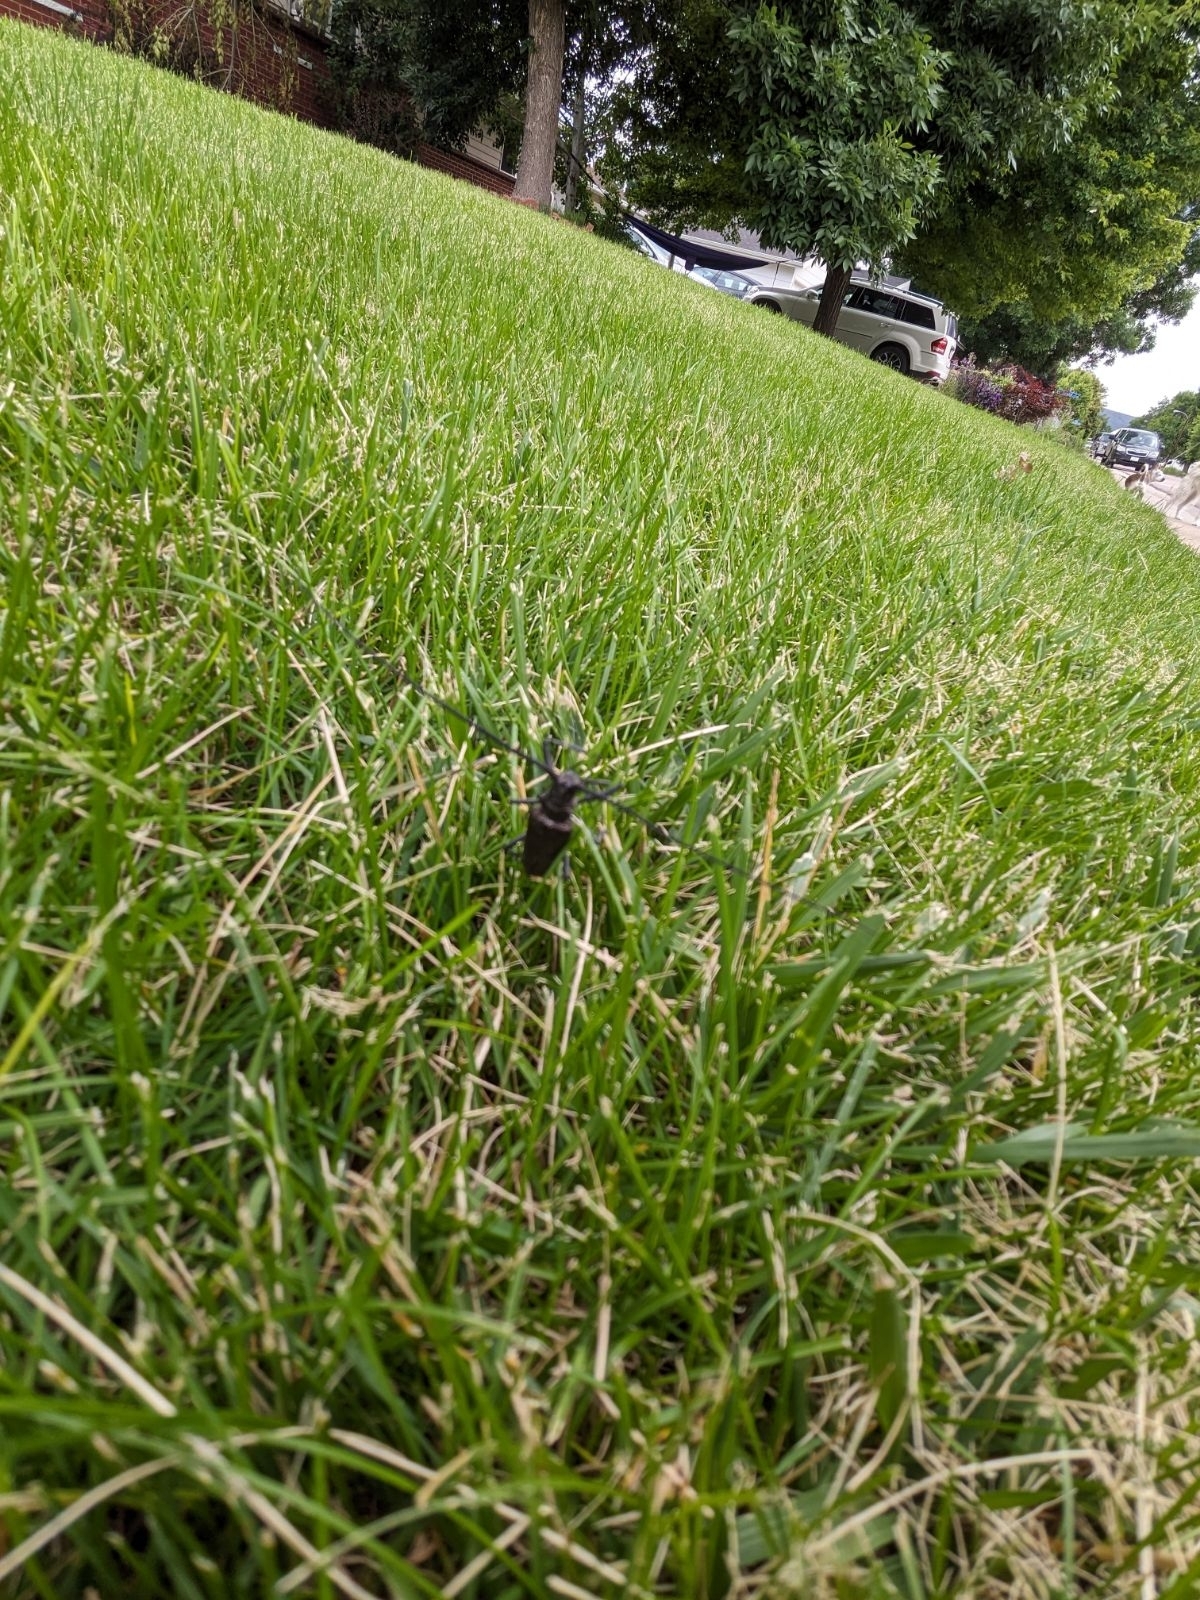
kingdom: Animalia
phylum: Arthropoda
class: Insecta
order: Coleoptera
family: Cerambycidae
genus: Monochamus
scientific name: Monochamus scutellatus
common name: White-spotted sawyer beetle
